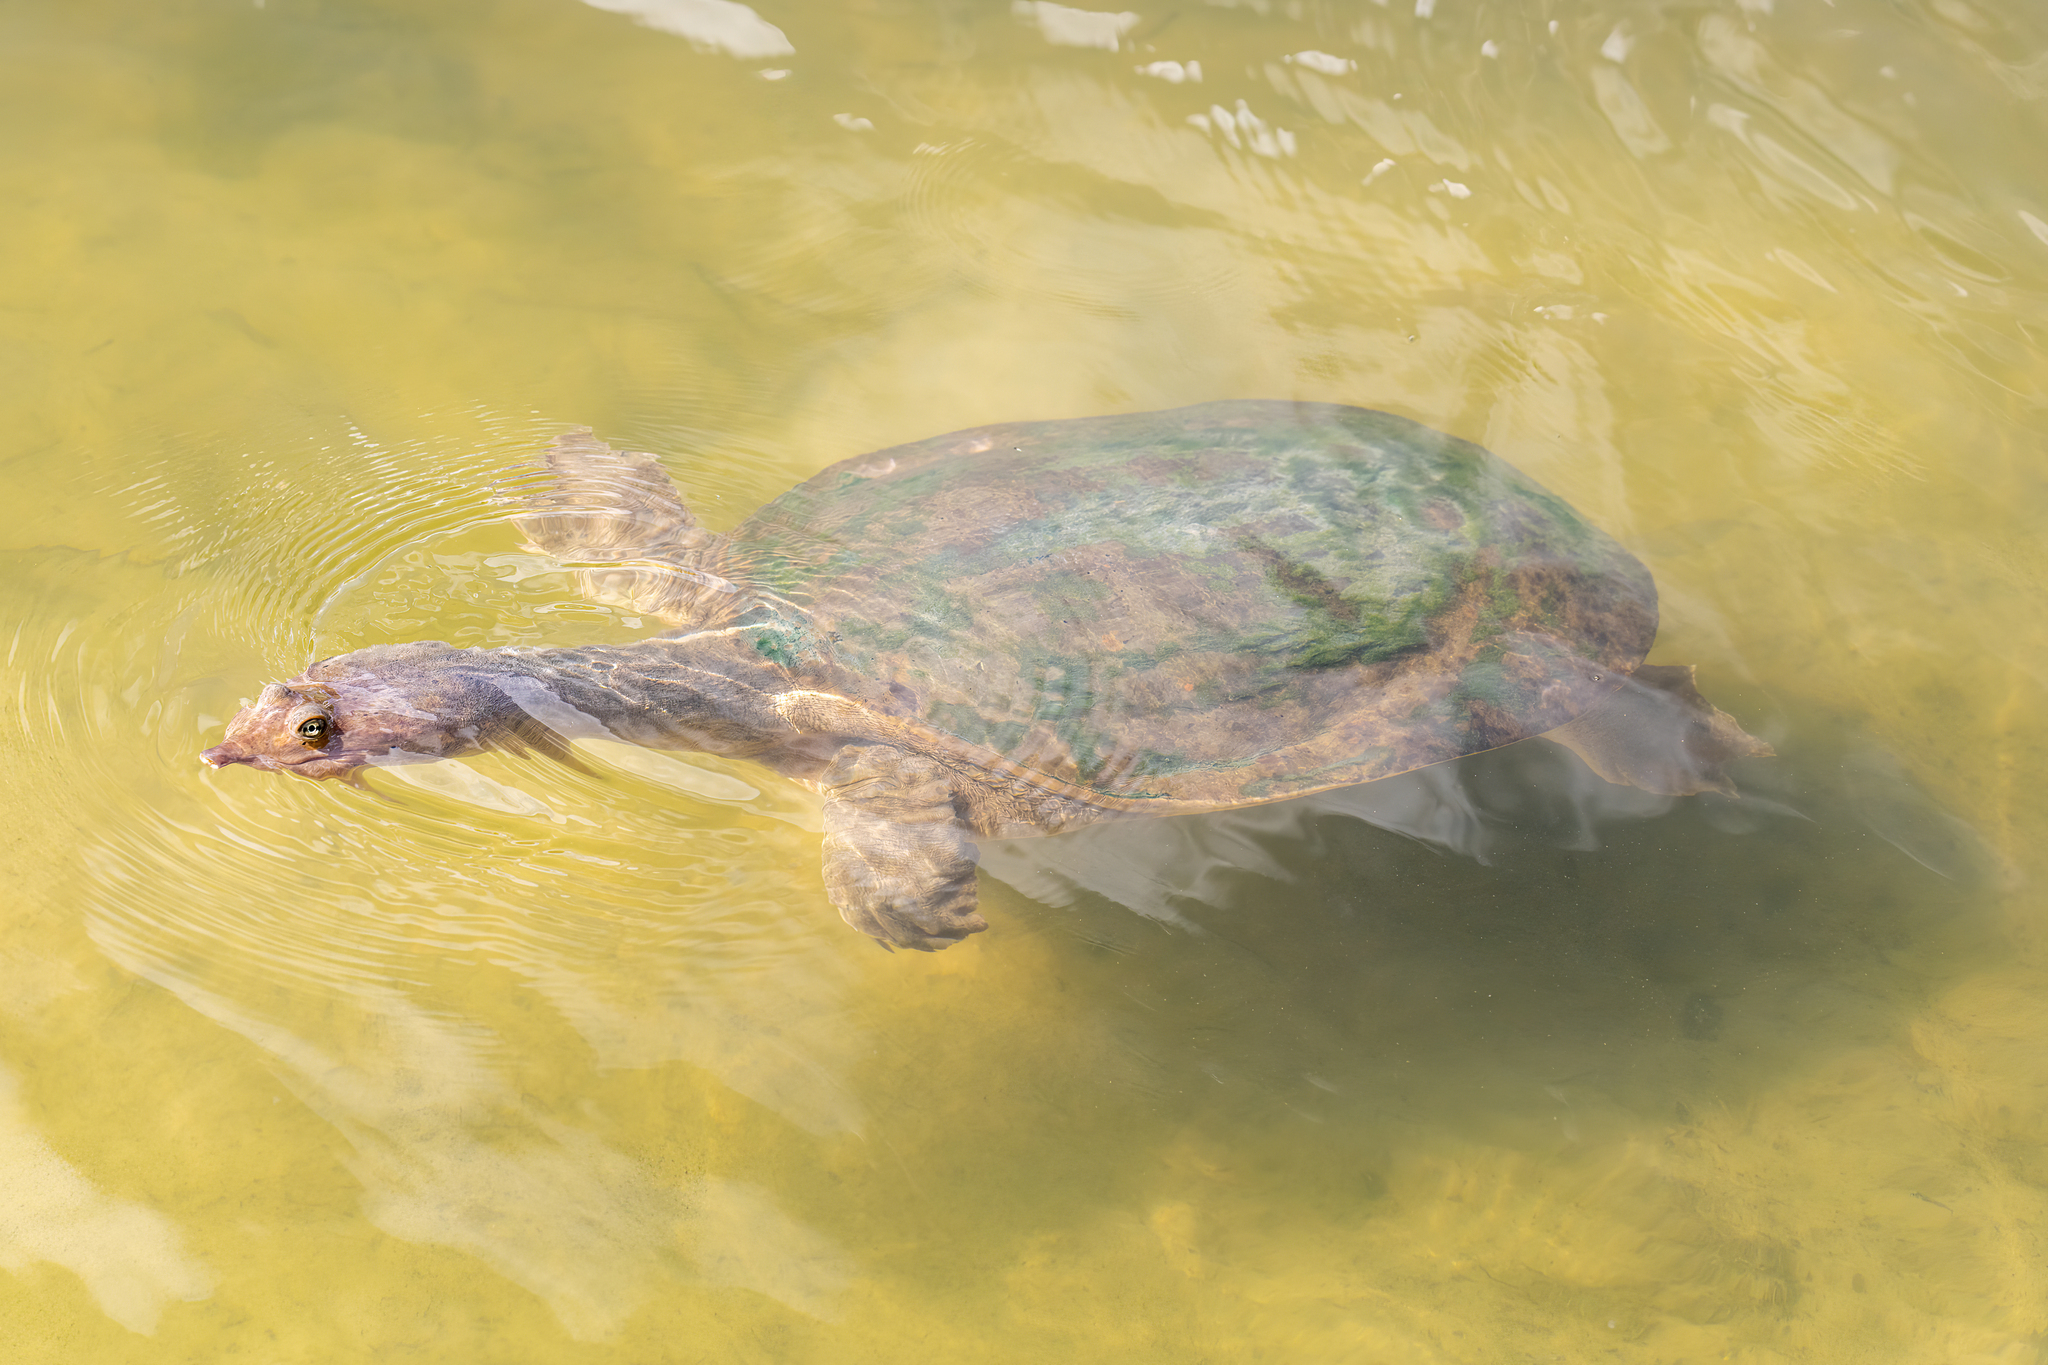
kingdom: Animalia
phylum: Chordata
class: Testudines
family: Trionychidae
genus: Apalone
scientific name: Apalone ferox
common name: Florida softshell turtle
